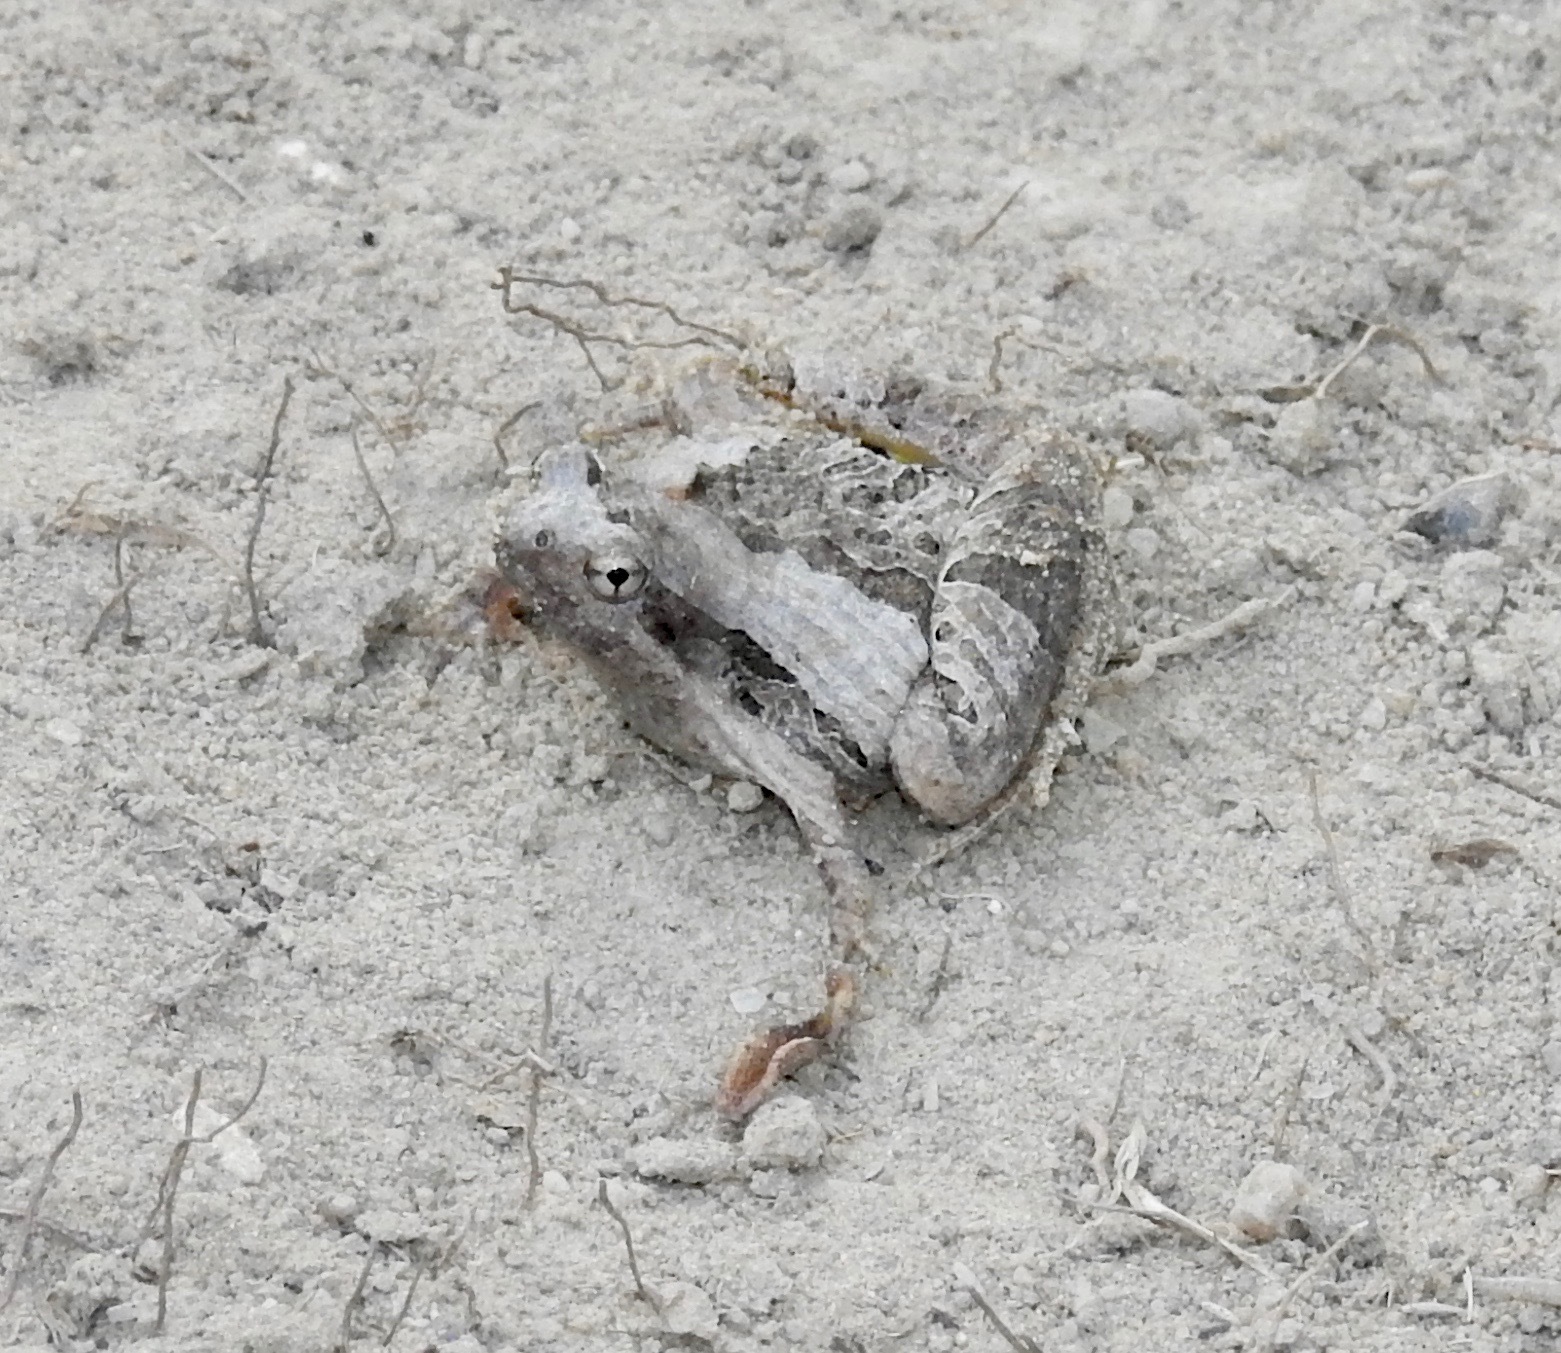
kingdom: Animalia
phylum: Chordata
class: Amphibia
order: Anura
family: Microhylidae
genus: Microhyla
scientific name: Microhyla pulchra
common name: Beautiful pygmy frog
